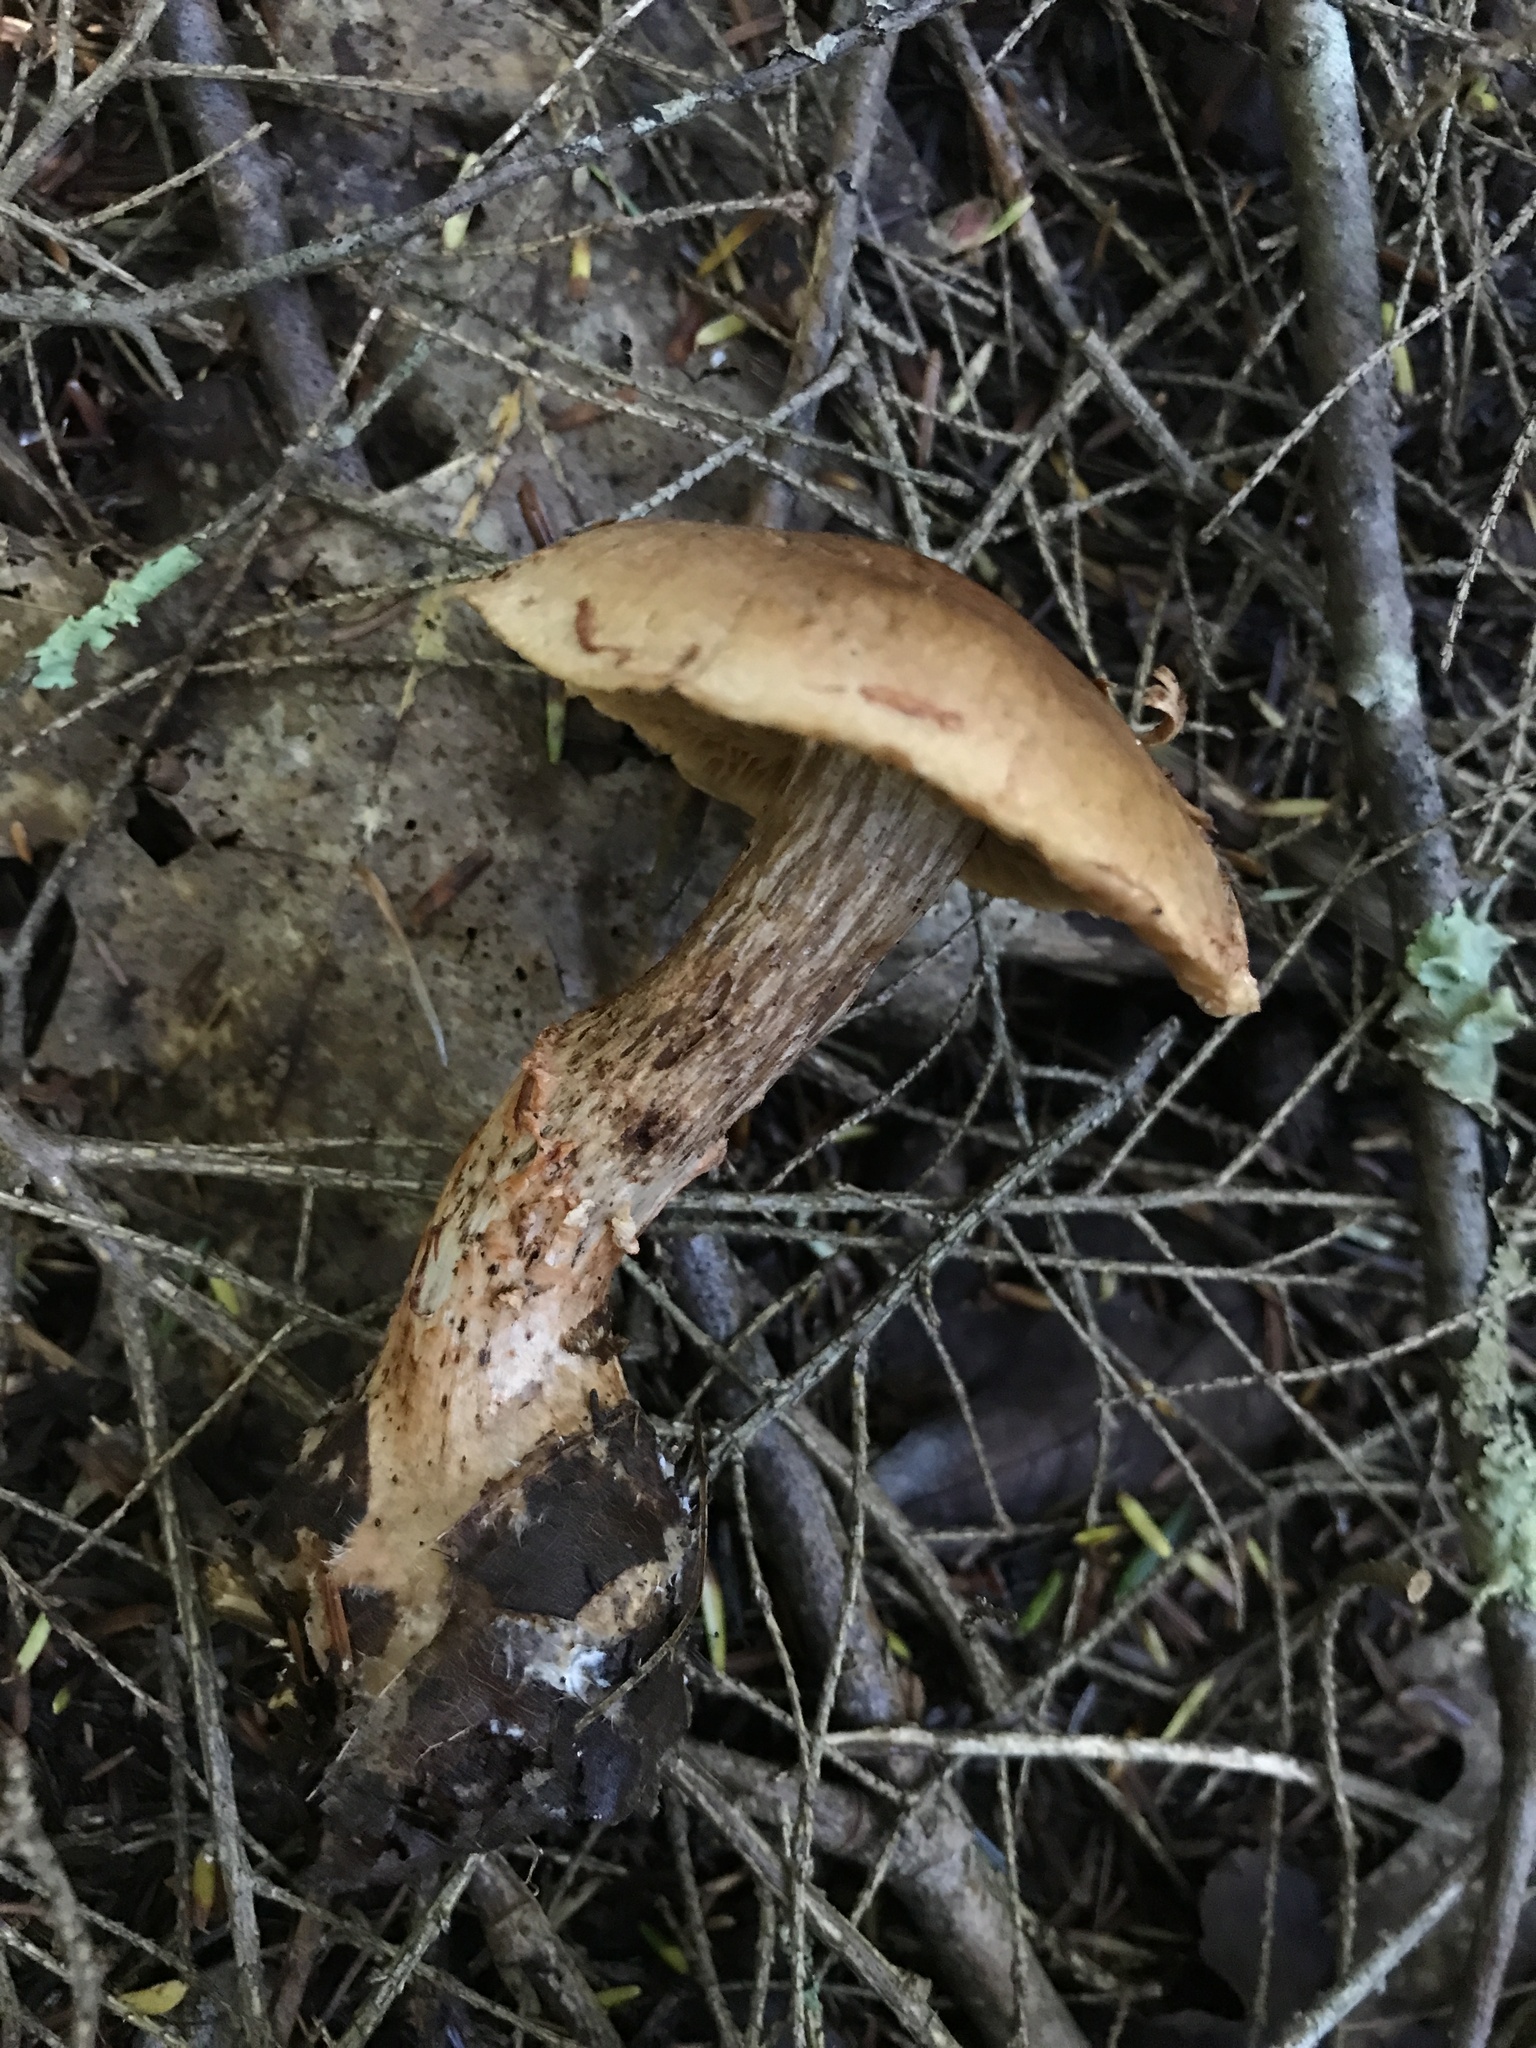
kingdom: Fungi
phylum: Basidiomycota
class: Agaricomycetes
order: Agaricales
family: Cortinariaceae
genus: Cortinarius
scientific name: Cortinarius armillatus
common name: Red banded webcap
